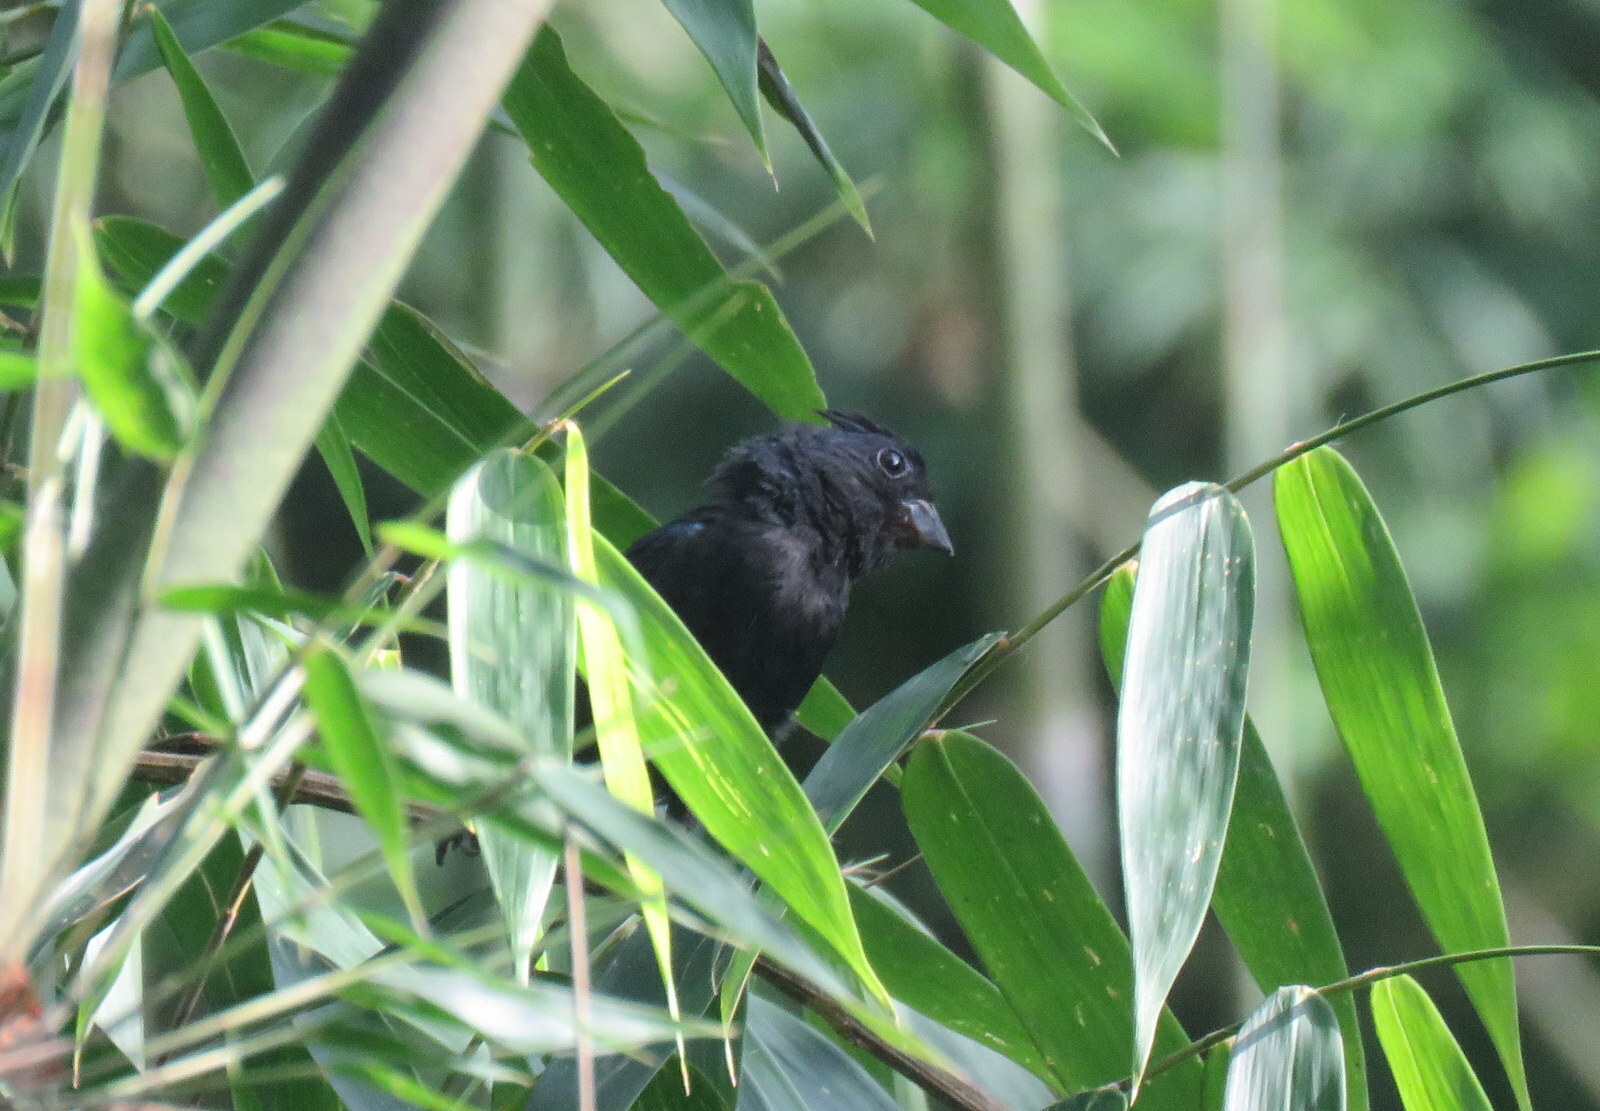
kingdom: Animalia
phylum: Chordata
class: Aves
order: Passeriformes
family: Cardinalidae
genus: Amaurospiza
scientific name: Amaurospiza moesta
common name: Blackish-blue seedeater
